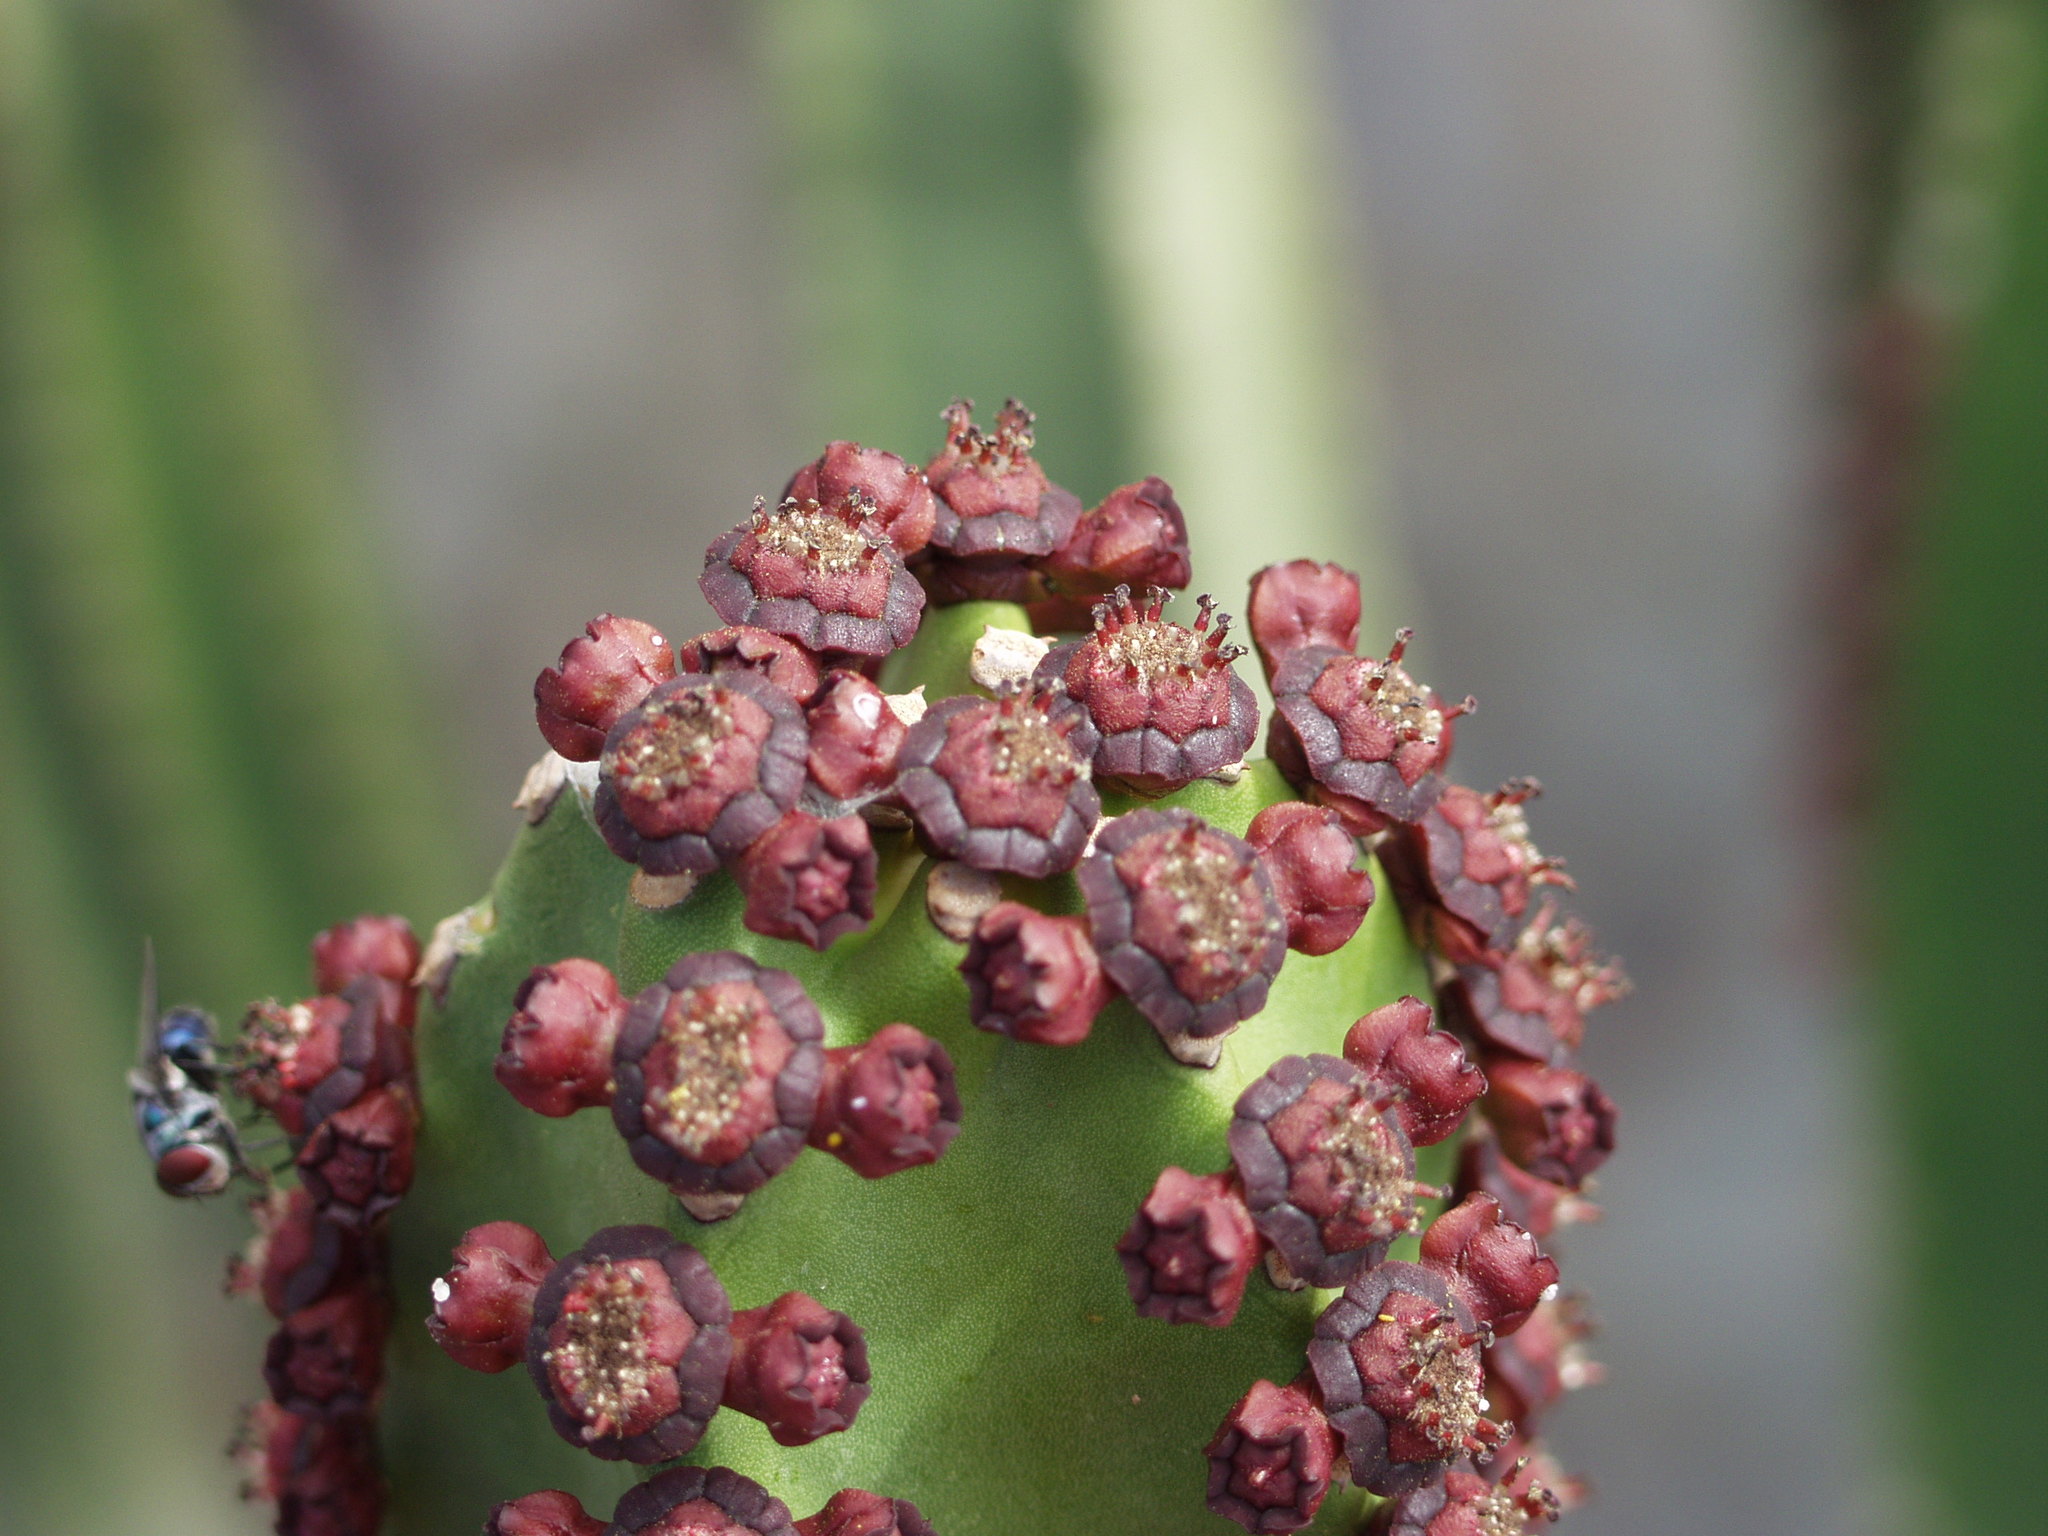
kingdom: Plantae
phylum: Tracheophyta
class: Magnoliopsida
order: Malpighiales
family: Euphorbiaceae
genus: Euphorbia
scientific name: Euphorbia canariensis
